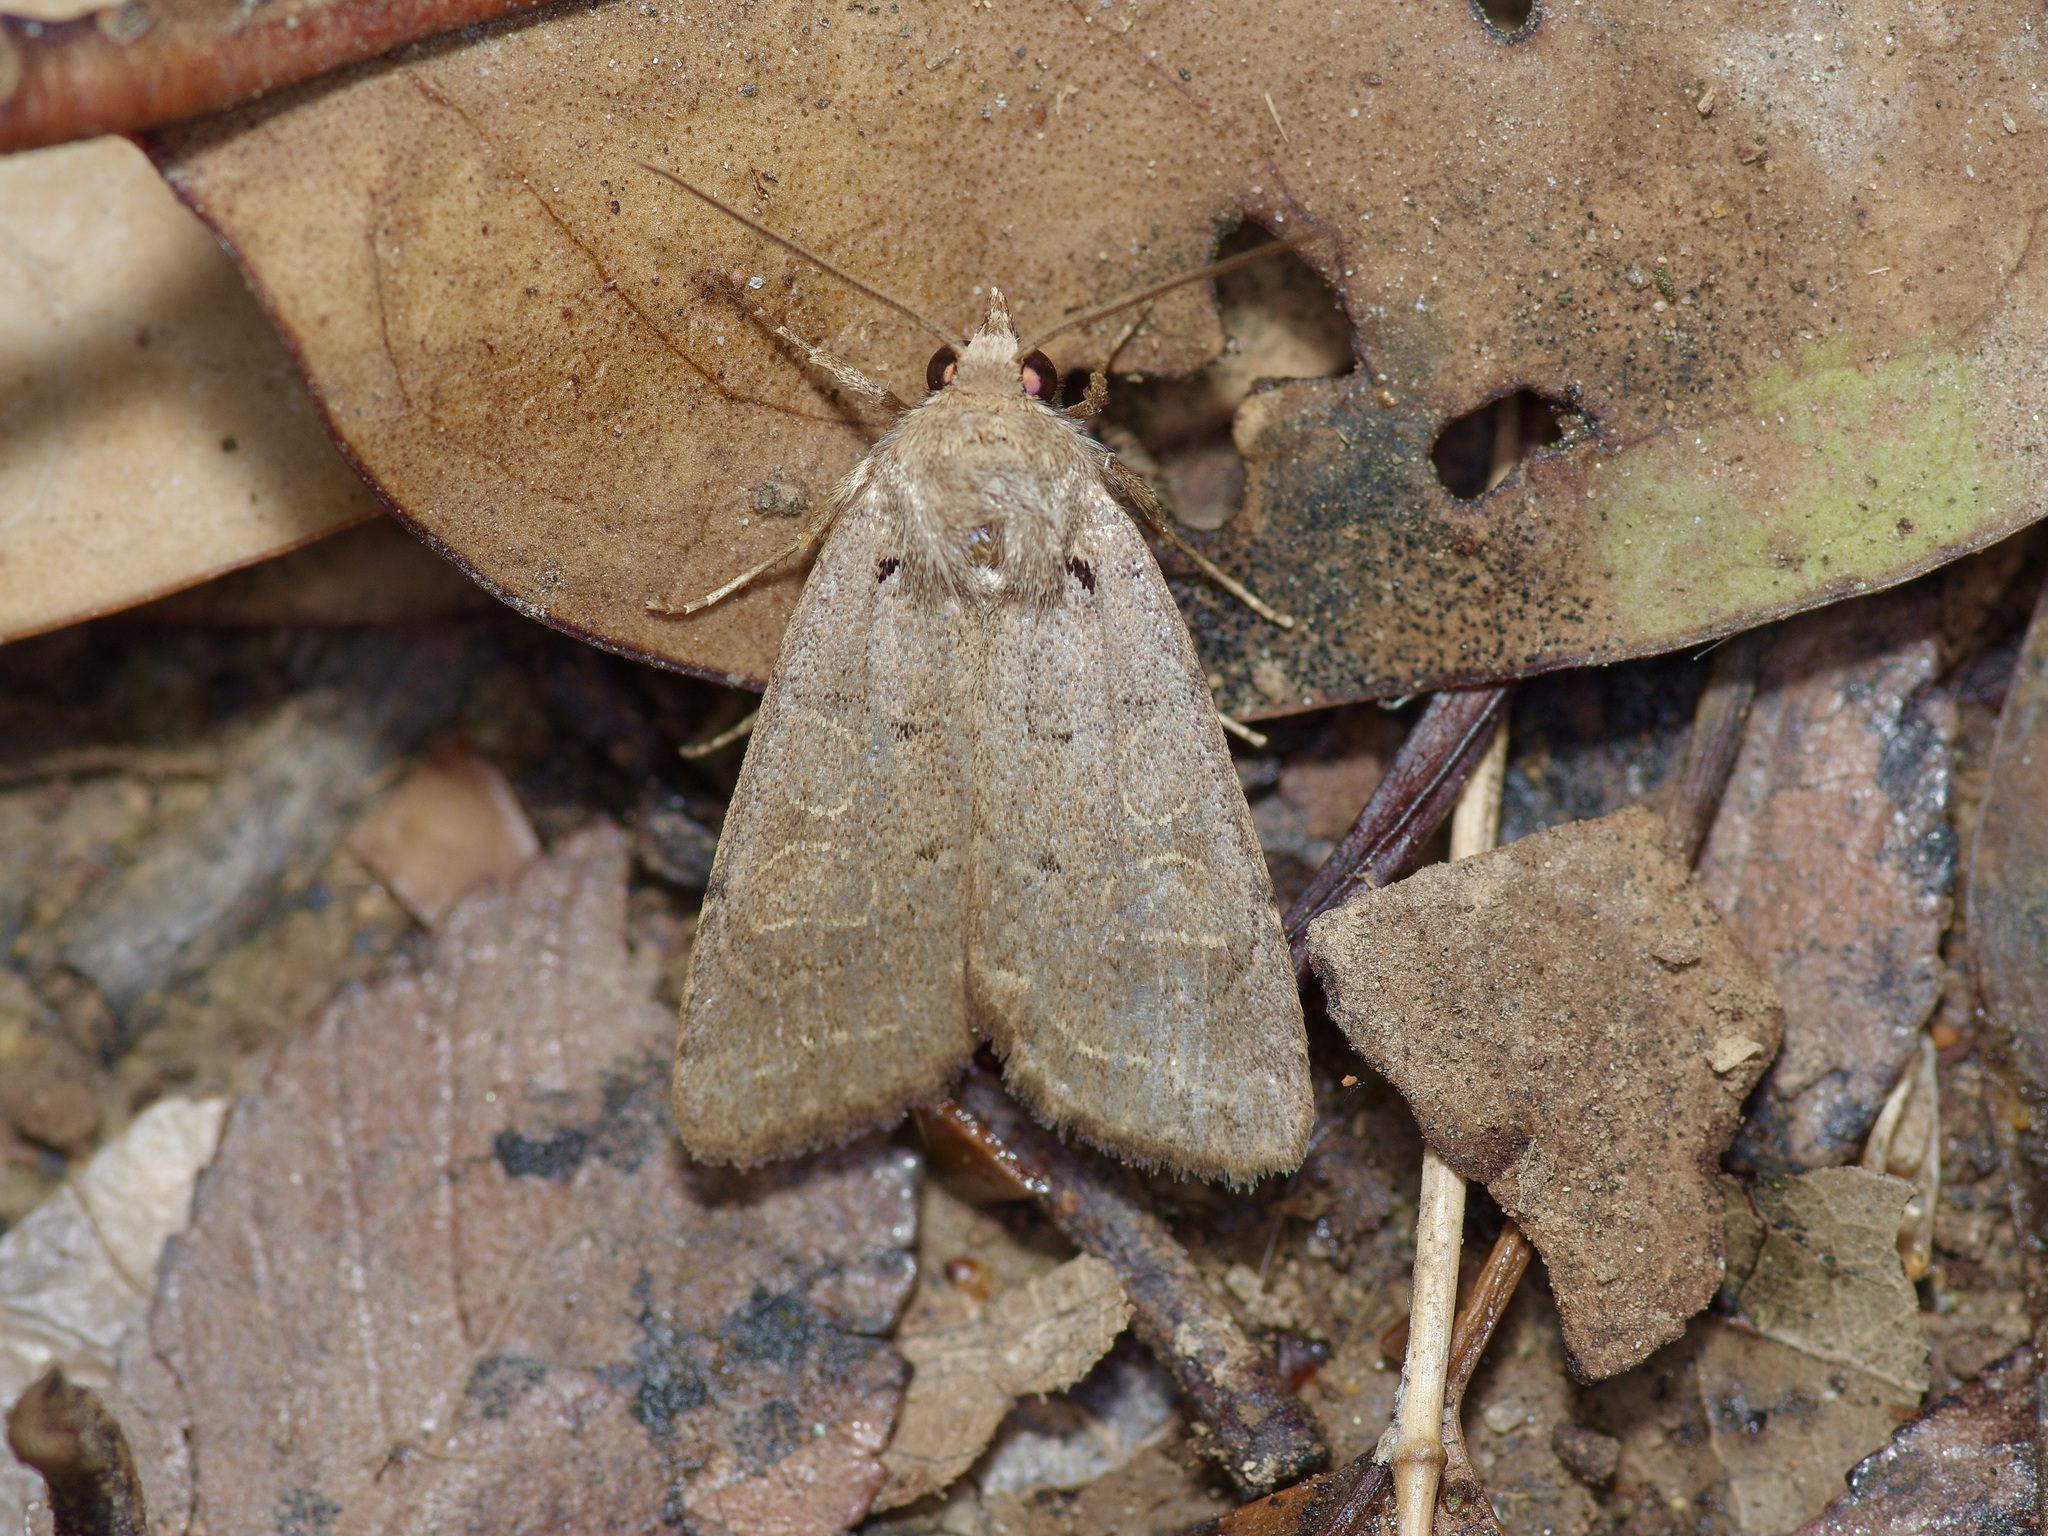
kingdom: Animalia
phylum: Arthropoda
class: Insecta
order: Lepidoptera
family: Noctuidae
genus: Kocakina
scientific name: Kocakina fidelis
